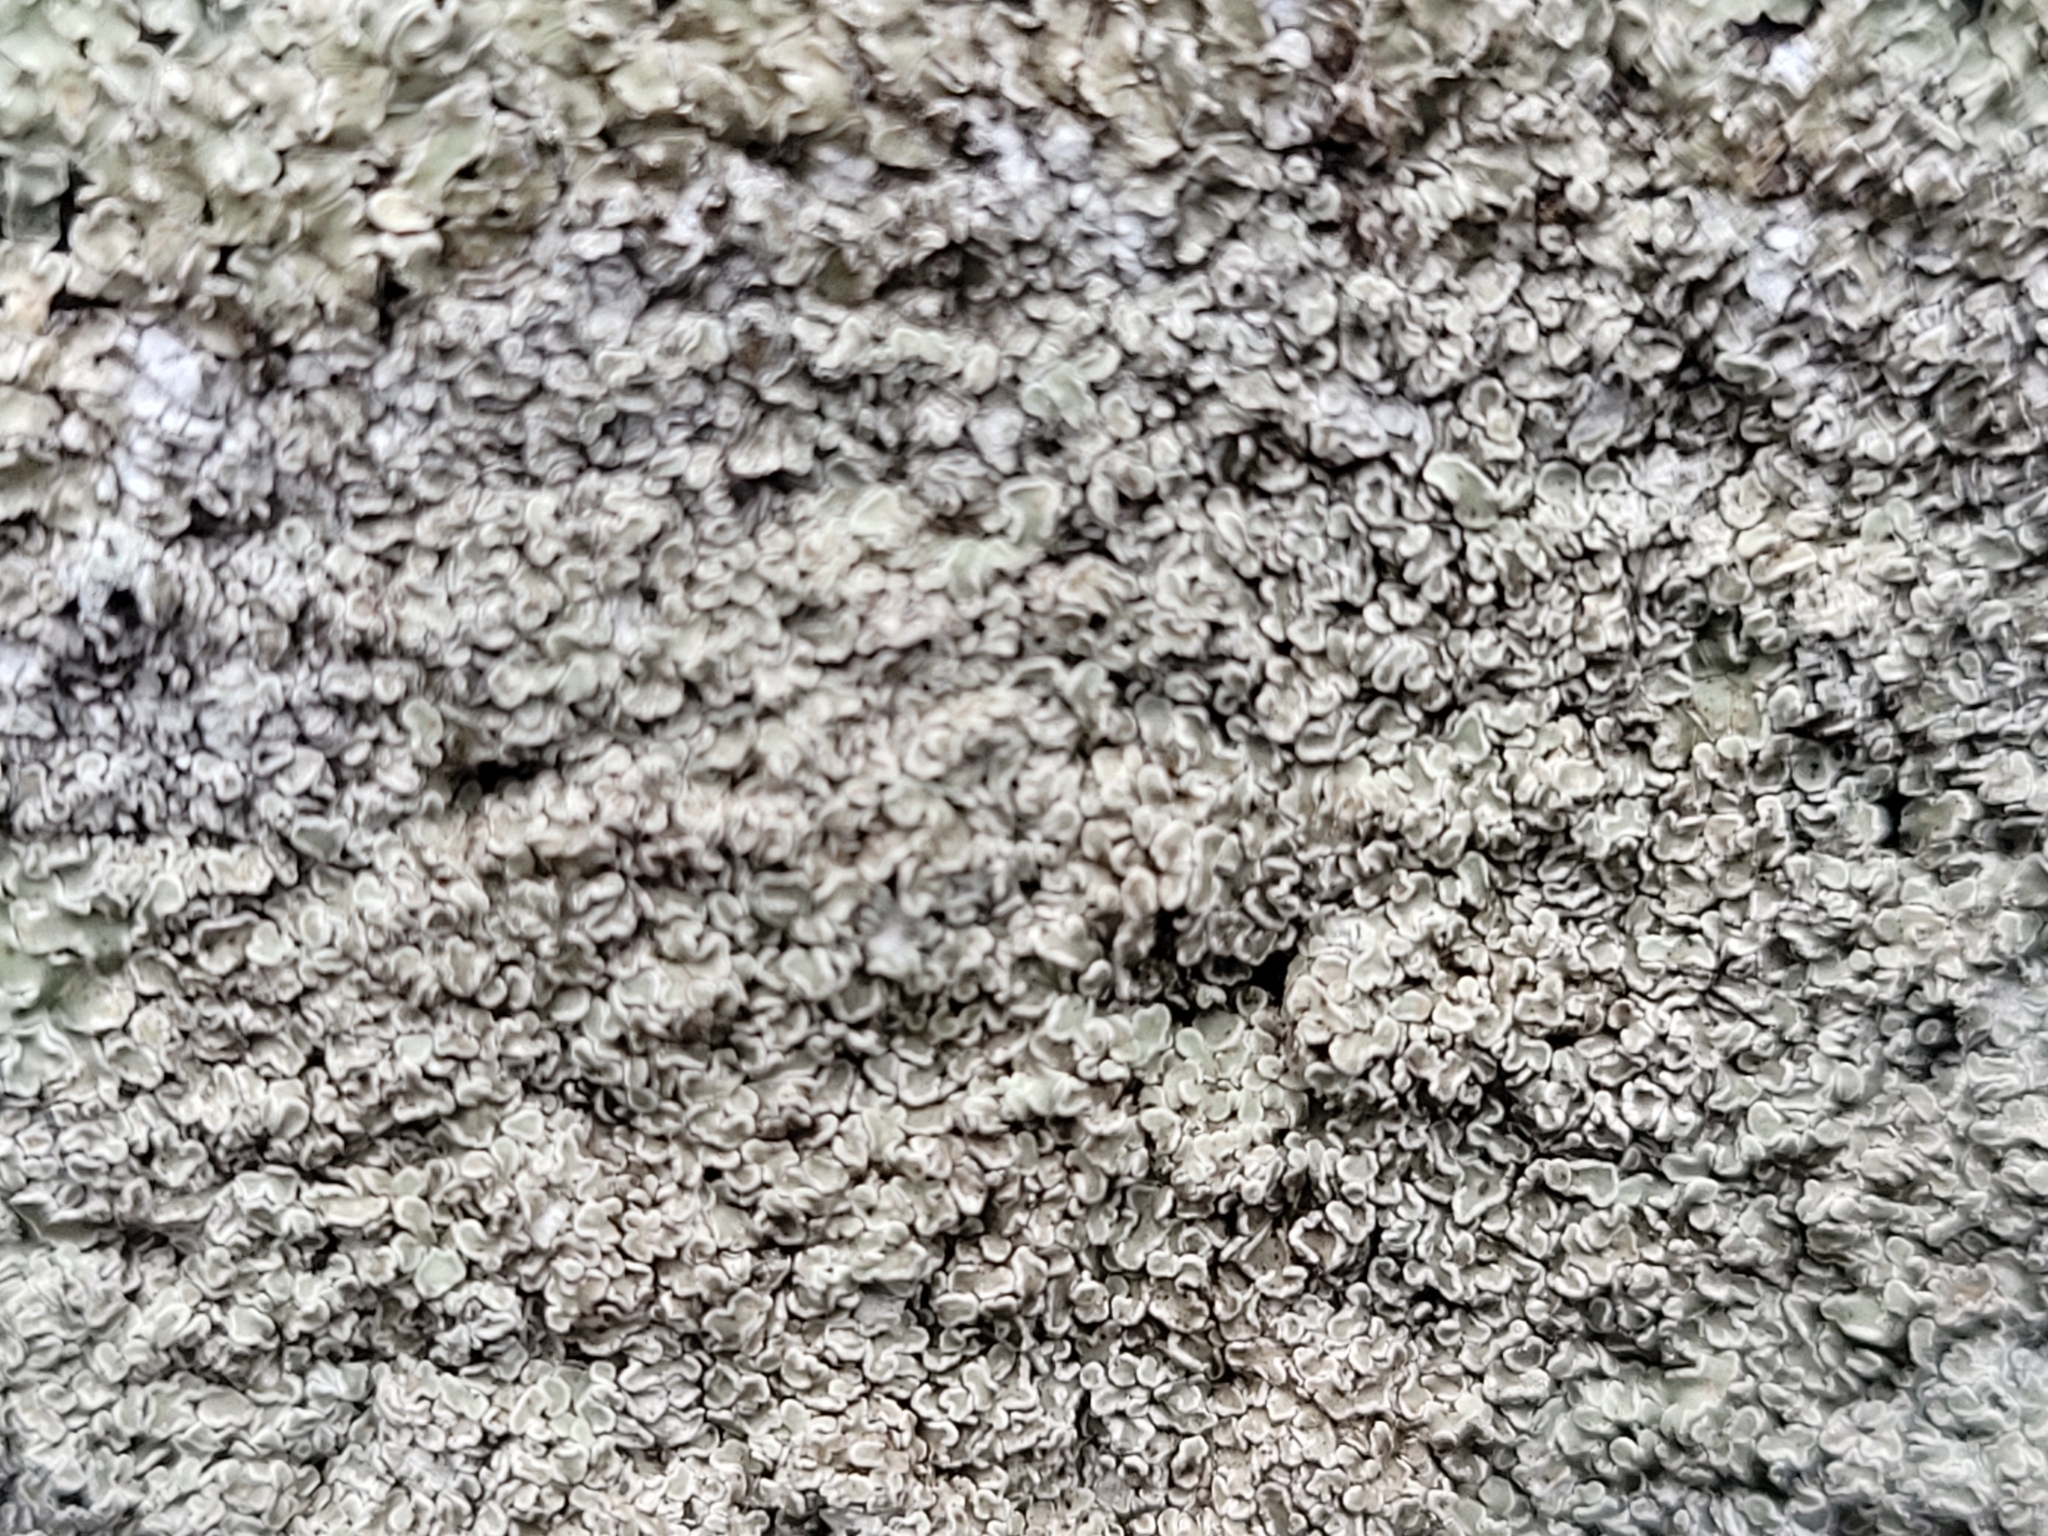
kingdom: Fungi
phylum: Ascomycota
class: Lecanoromycetes
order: Lecanorales
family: Lecanoraceae
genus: Protoparmeliopsis
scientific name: Protoparmeliopsis muralis
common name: Stonewall rim lichen
